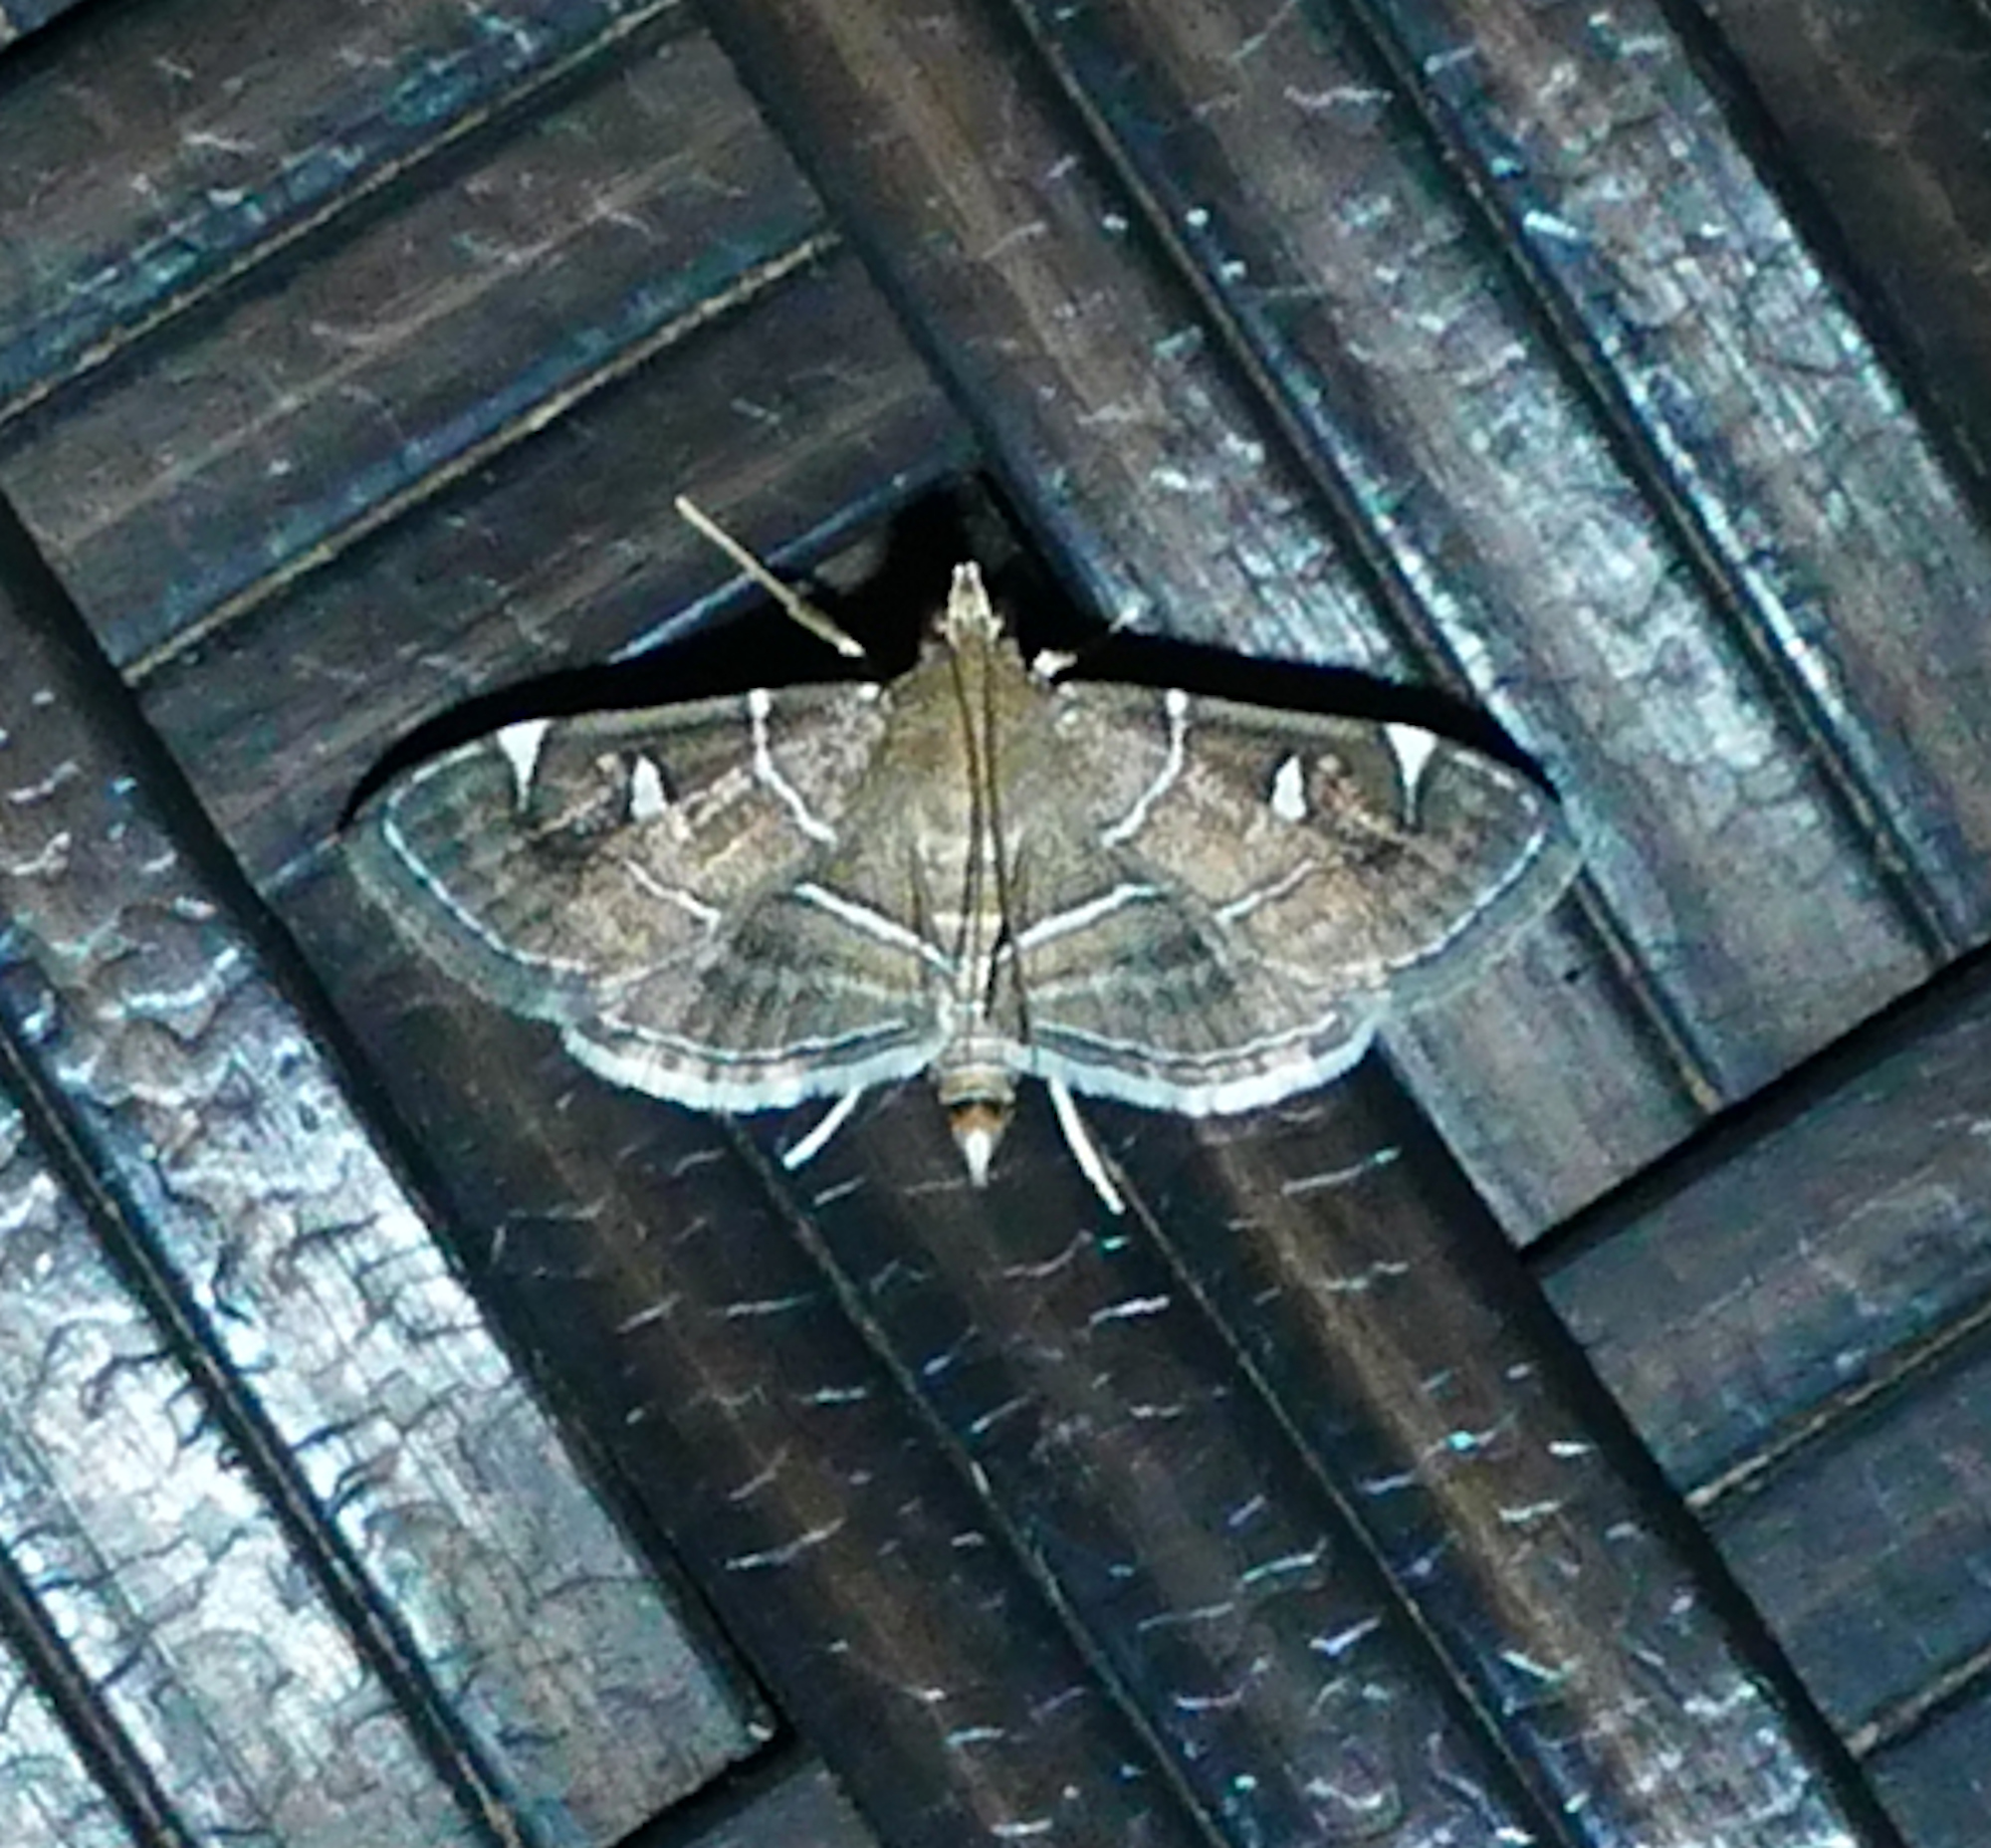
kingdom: Animalia
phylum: Arthropoda
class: Insecta
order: Lepidoptera
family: Crambidae
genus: Lamprosema
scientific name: Lamprosema victoriae
